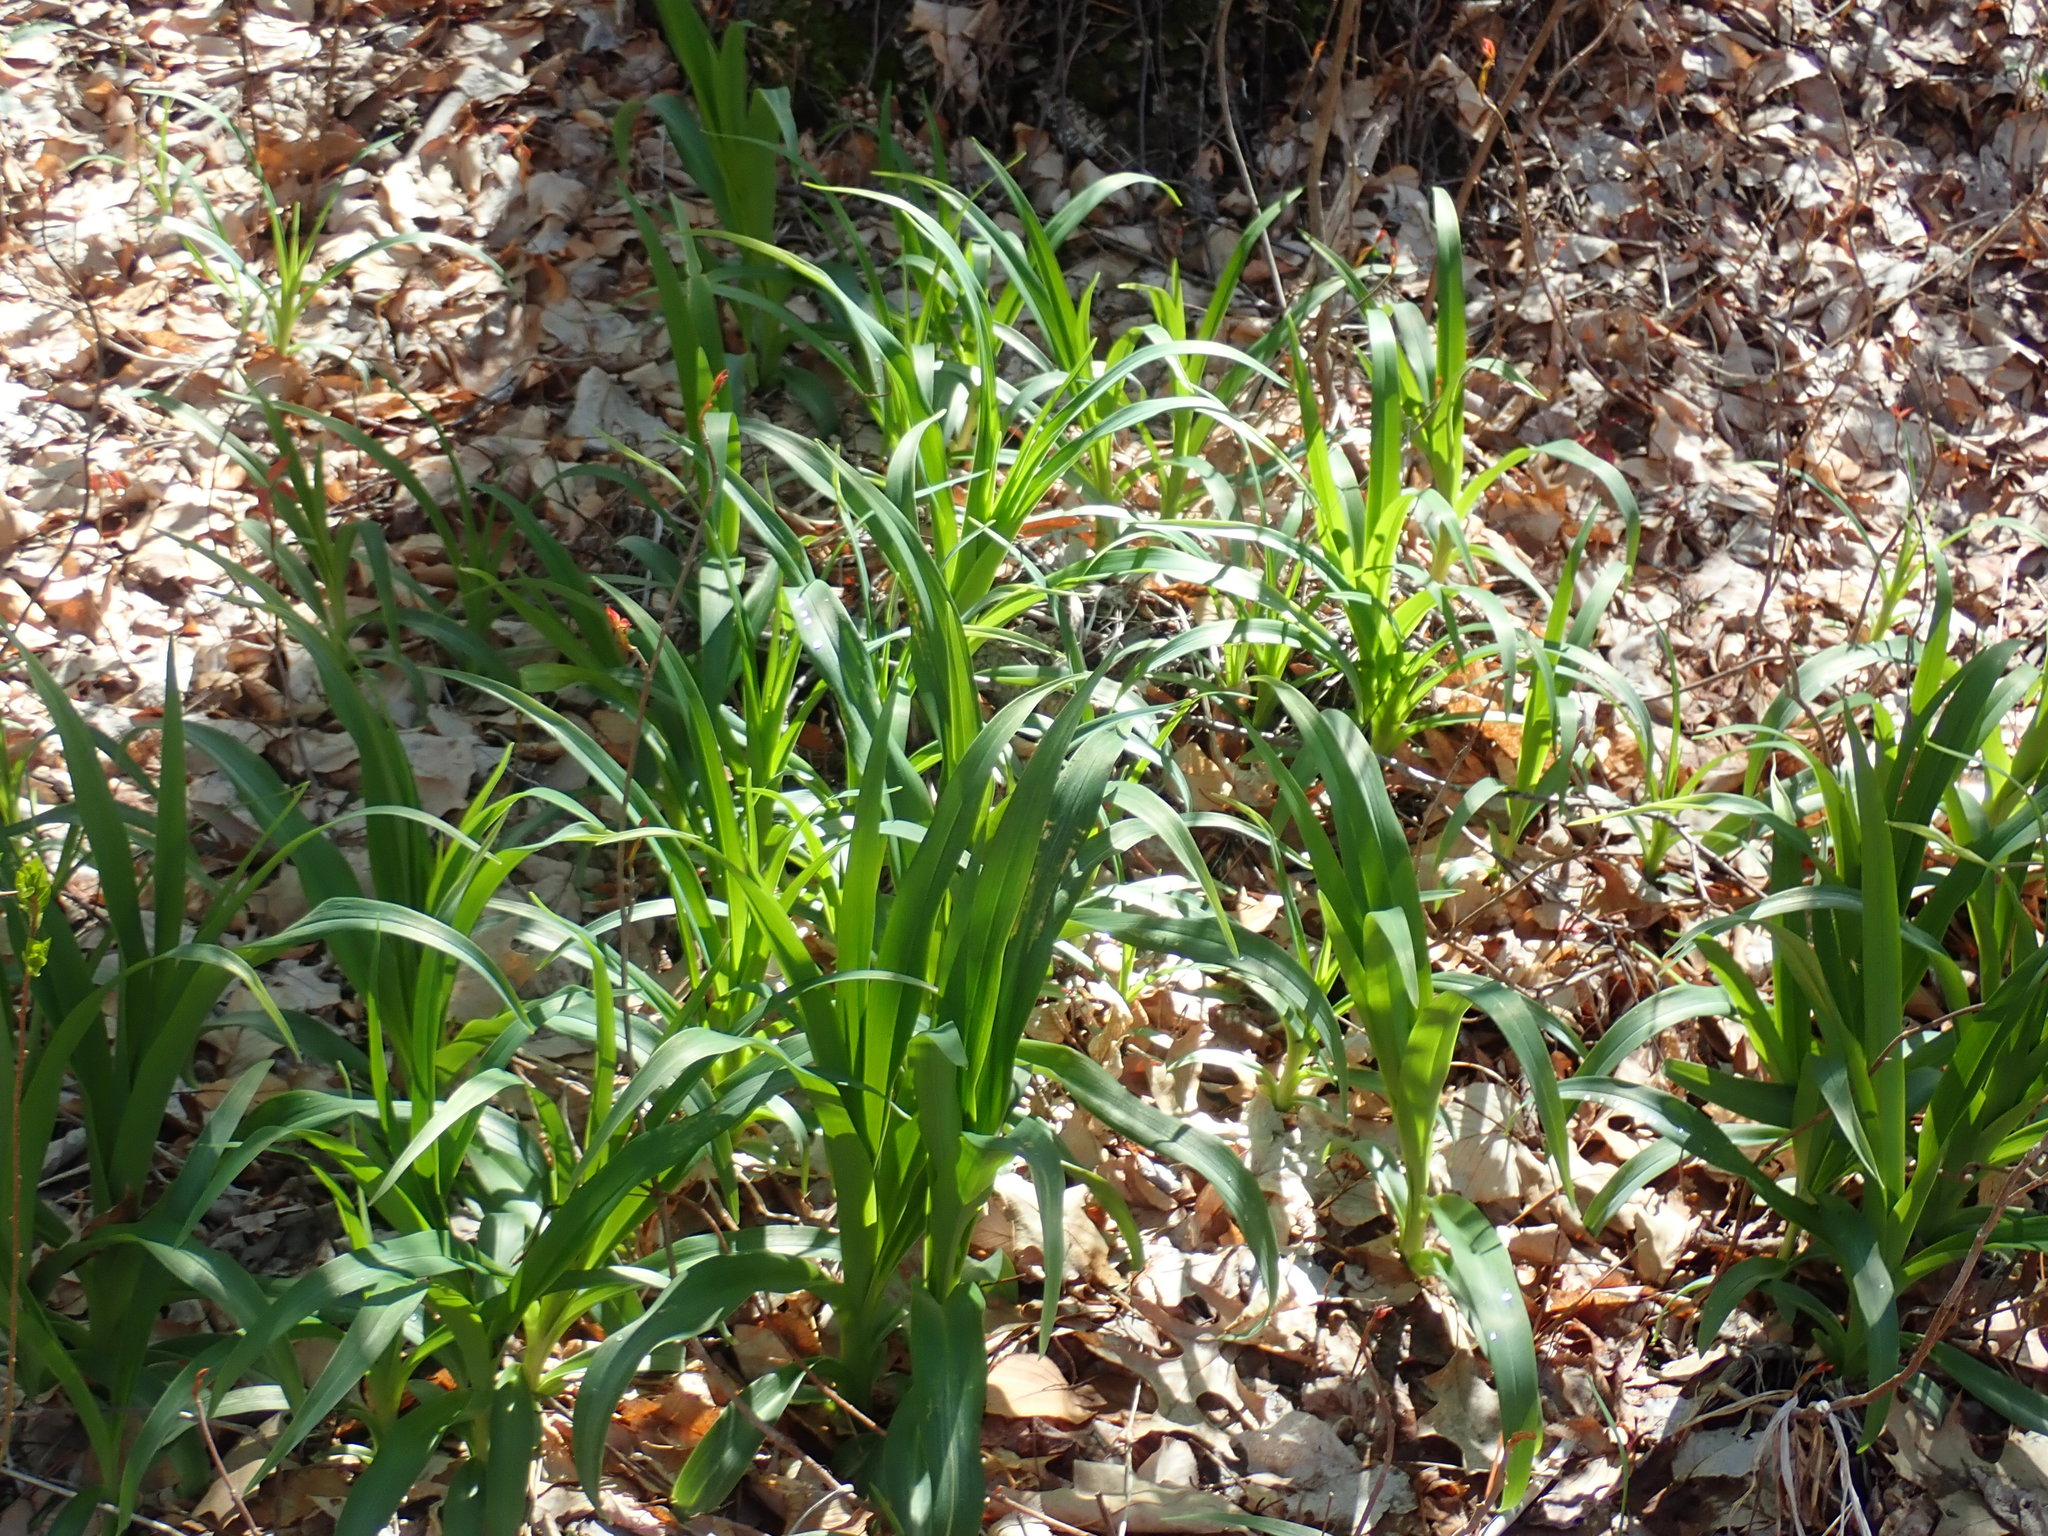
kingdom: Plantae
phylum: Tracheophyta
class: Liliopsida
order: Asparagales
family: Asphodelaceae
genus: Hemerocallis
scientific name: Hemerocallis
